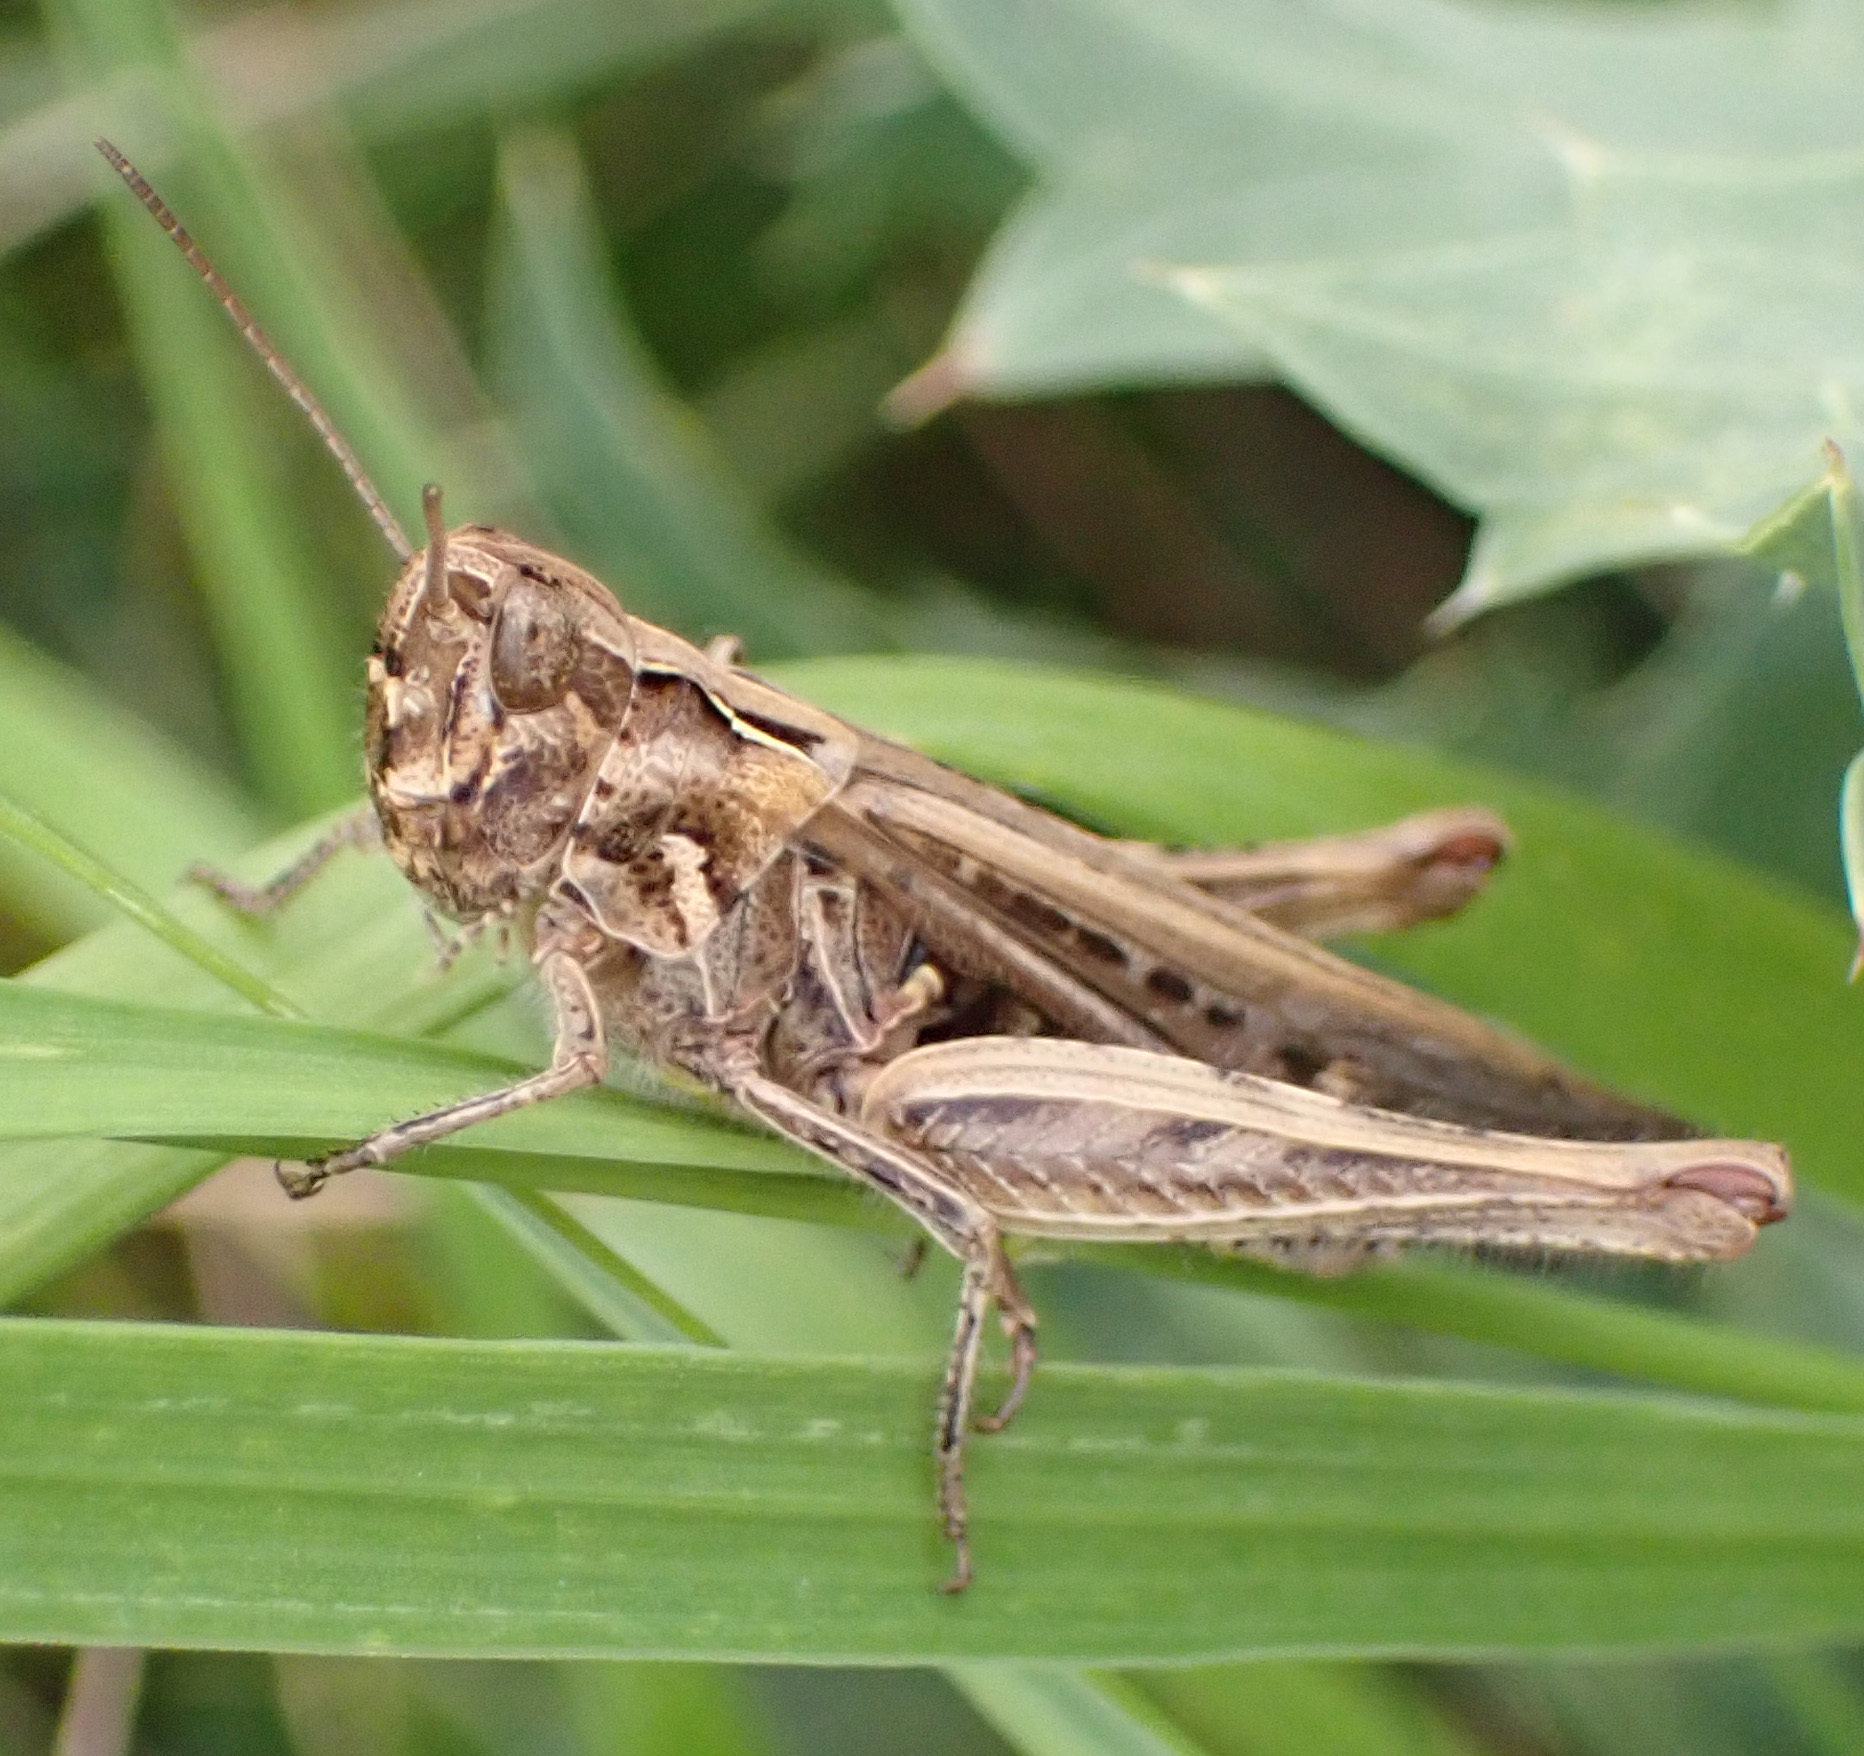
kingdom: Animalia
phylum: Arthropoda
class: Insecta
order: Orthoptera
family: Acrididae
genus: Chorthippus
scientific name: Chorthippus brunneus
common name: Field grasshopper
